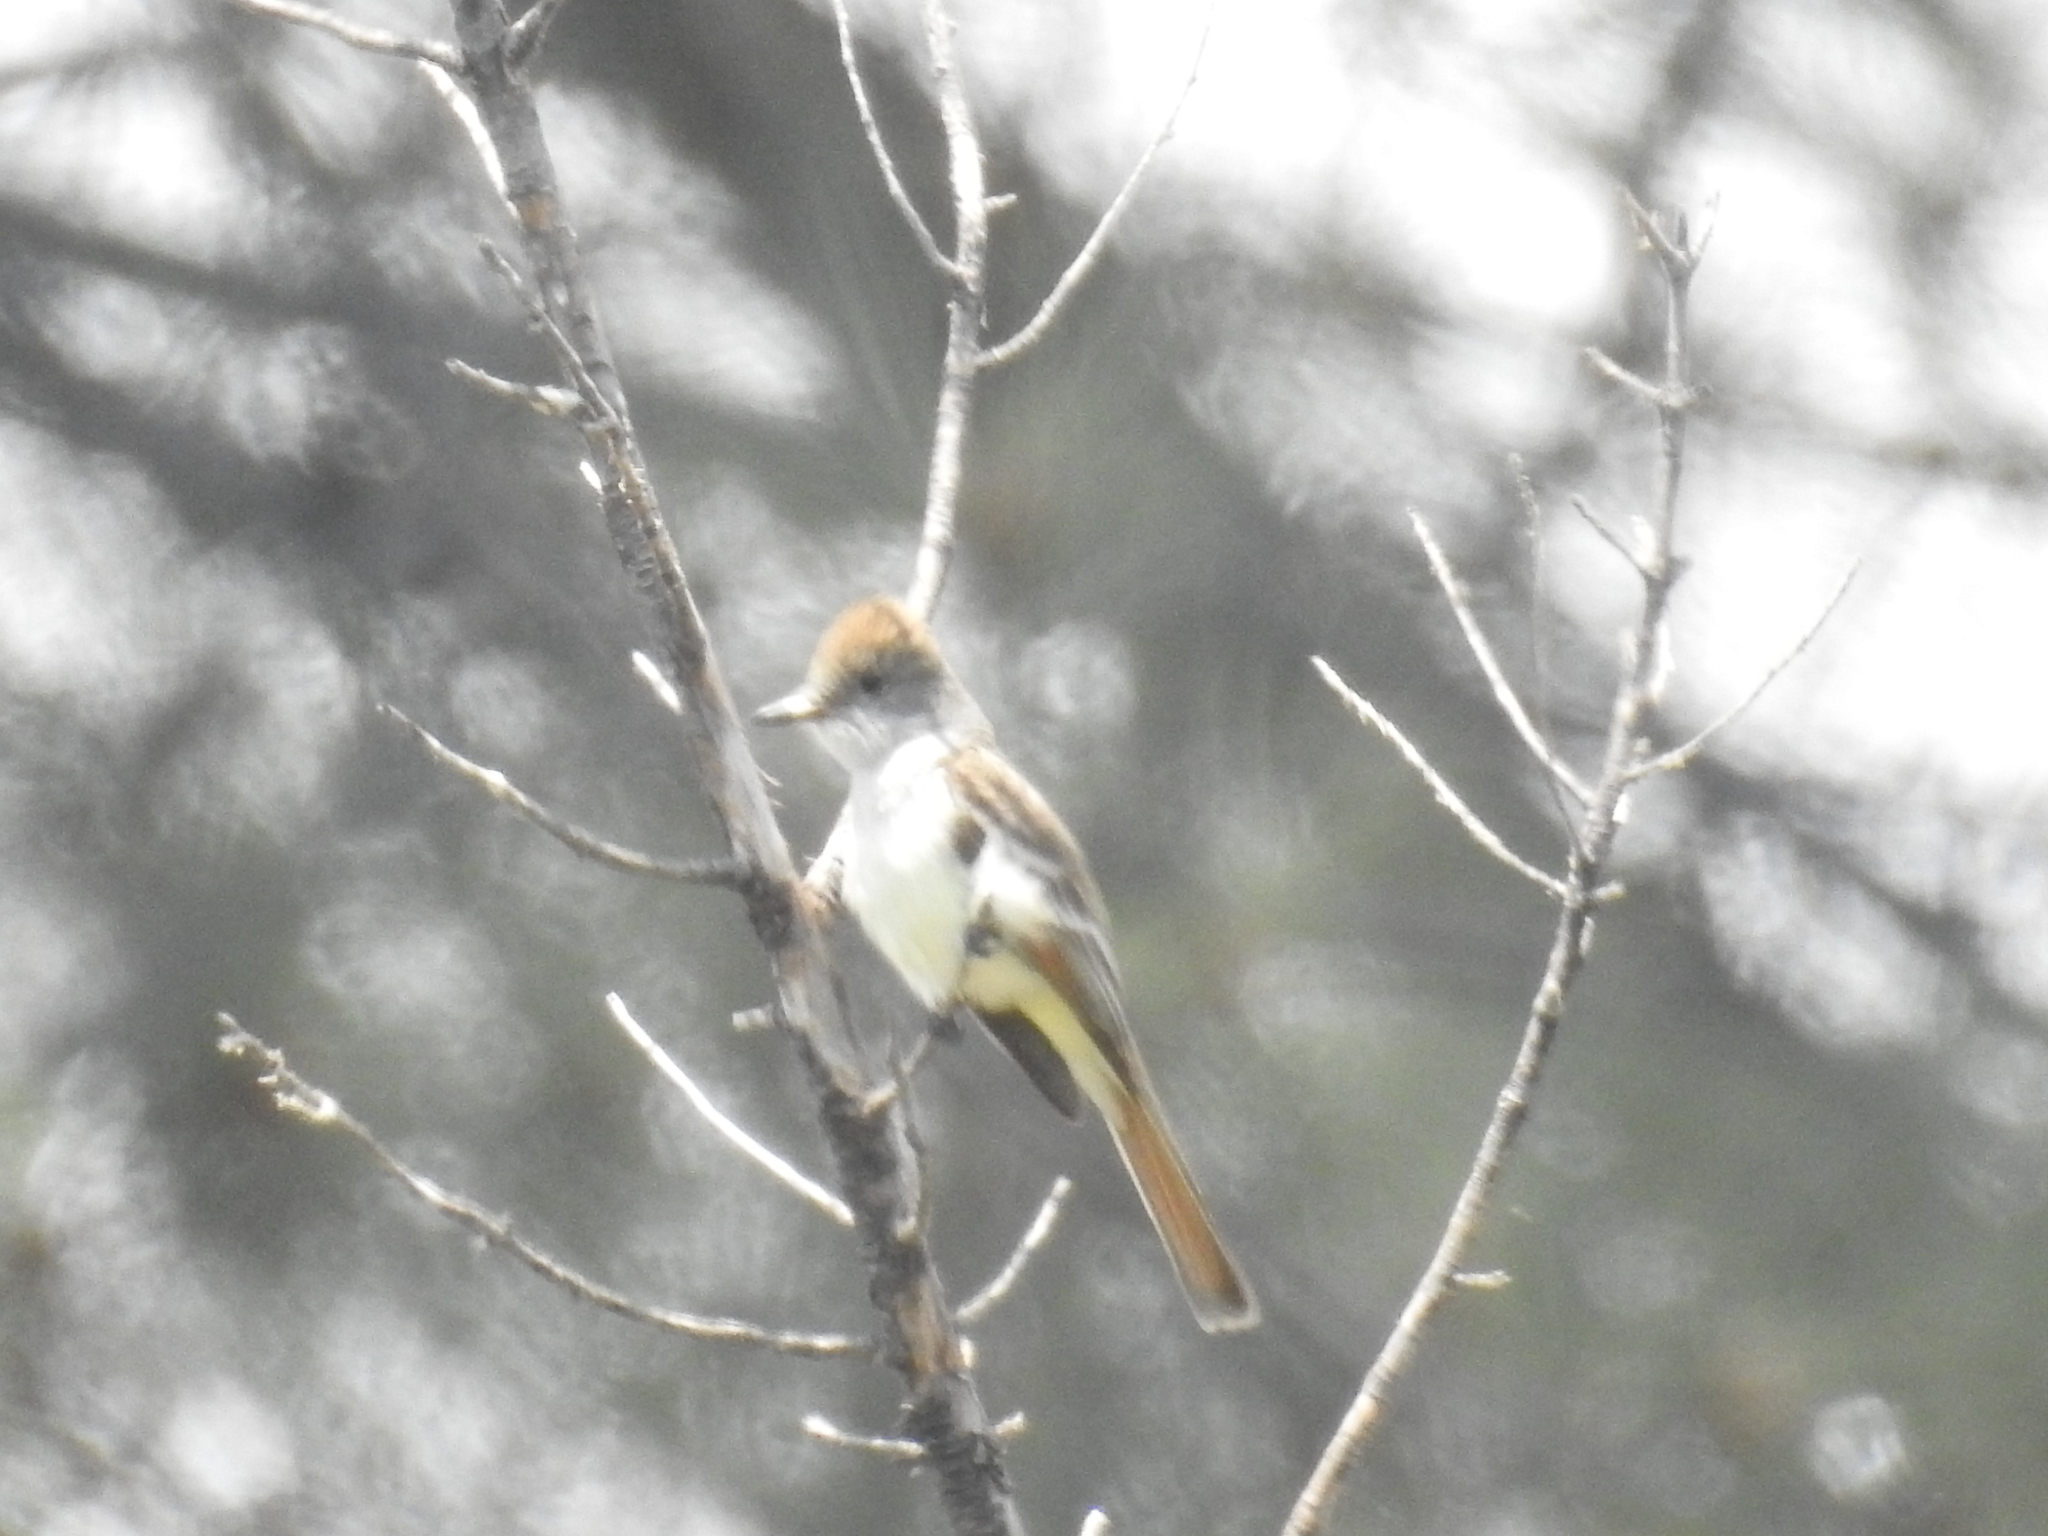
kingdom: Animalia
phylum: Chordata
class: Aves
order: Passeriformes
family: Tyrannidae
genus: Myiarchus
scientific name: Myiarchus cinerascens
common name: Ash-throated flycatcher
